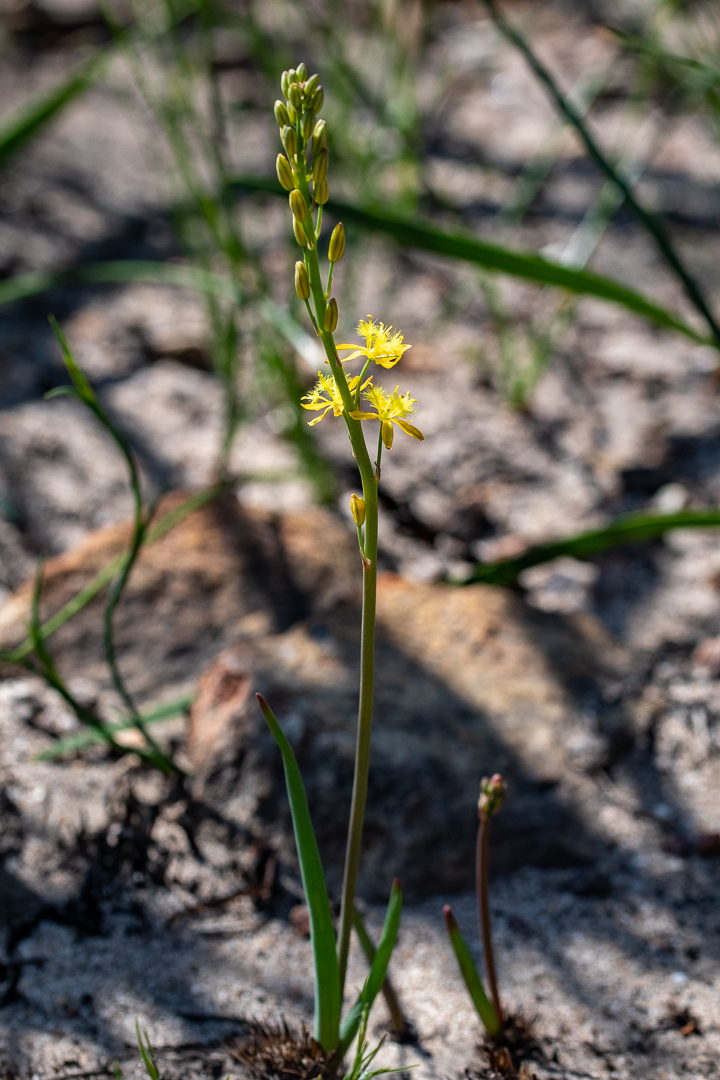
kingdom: Plantae
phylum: Tracheophyta
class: Liliopsida
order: Asparagales
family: Asphodelaceae
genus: Bulbine
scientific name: Bulbine favosa
